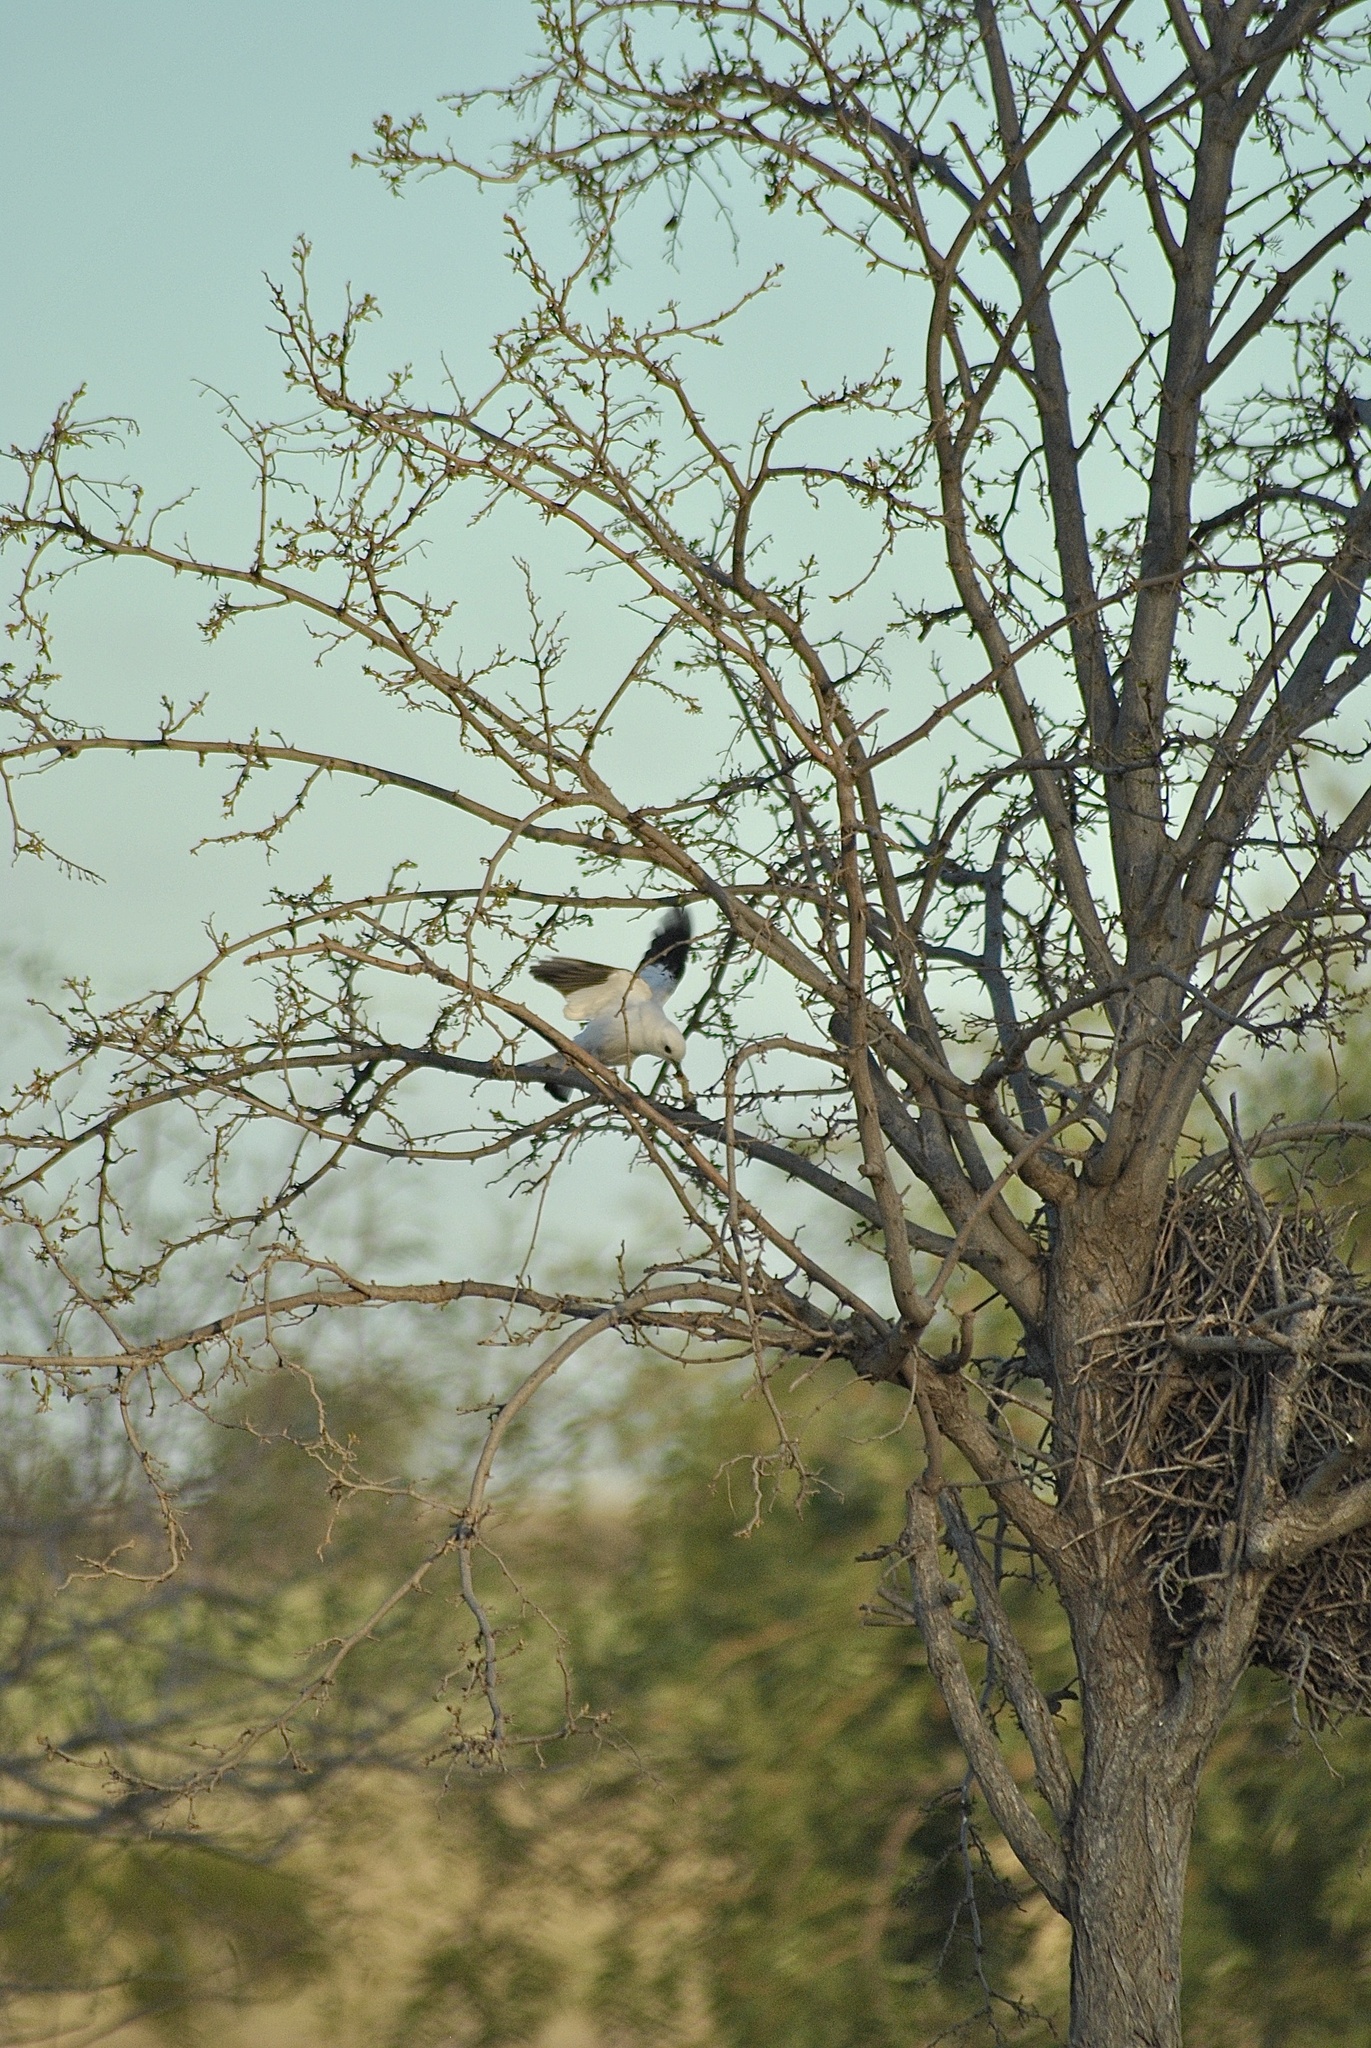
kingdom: Animalia
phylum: Chordata
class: Aves
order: Passeriformes
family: Tyrannidae
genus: Xolmis
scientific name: Xolmis irupero
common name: White monjita
